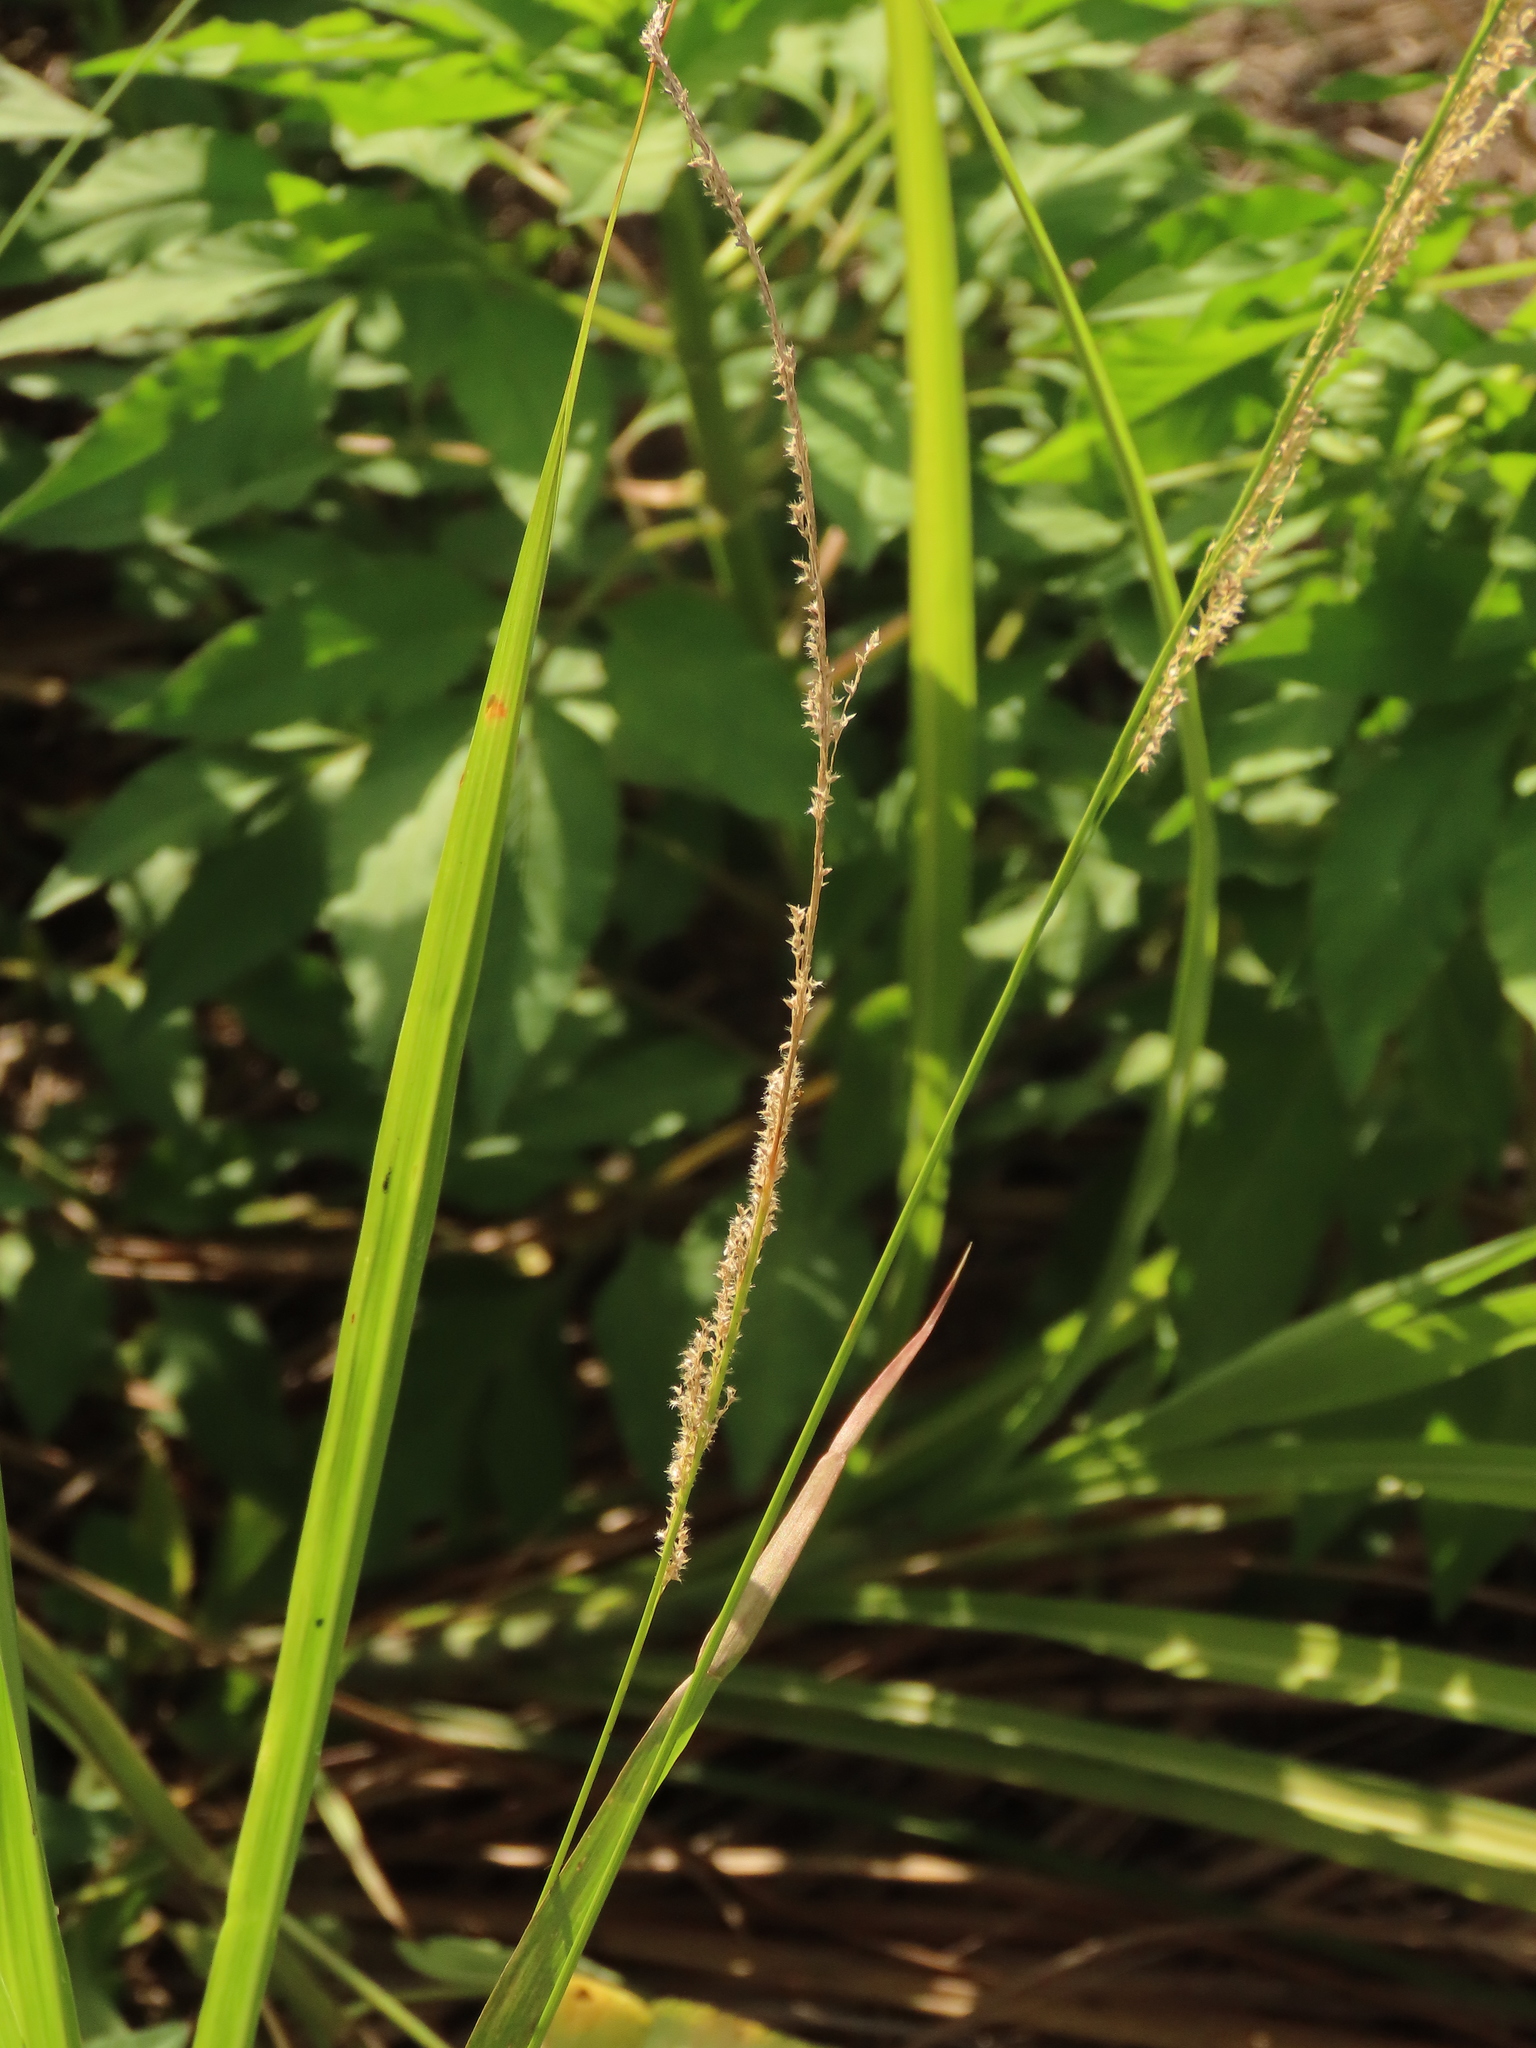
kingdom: Plantae
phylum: Tracheophyta
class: Liliopsida
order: Poales
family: Poaceae
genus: Eragrostis
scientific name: Eragrostis ciliaris
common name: Gophertail lovegrass
